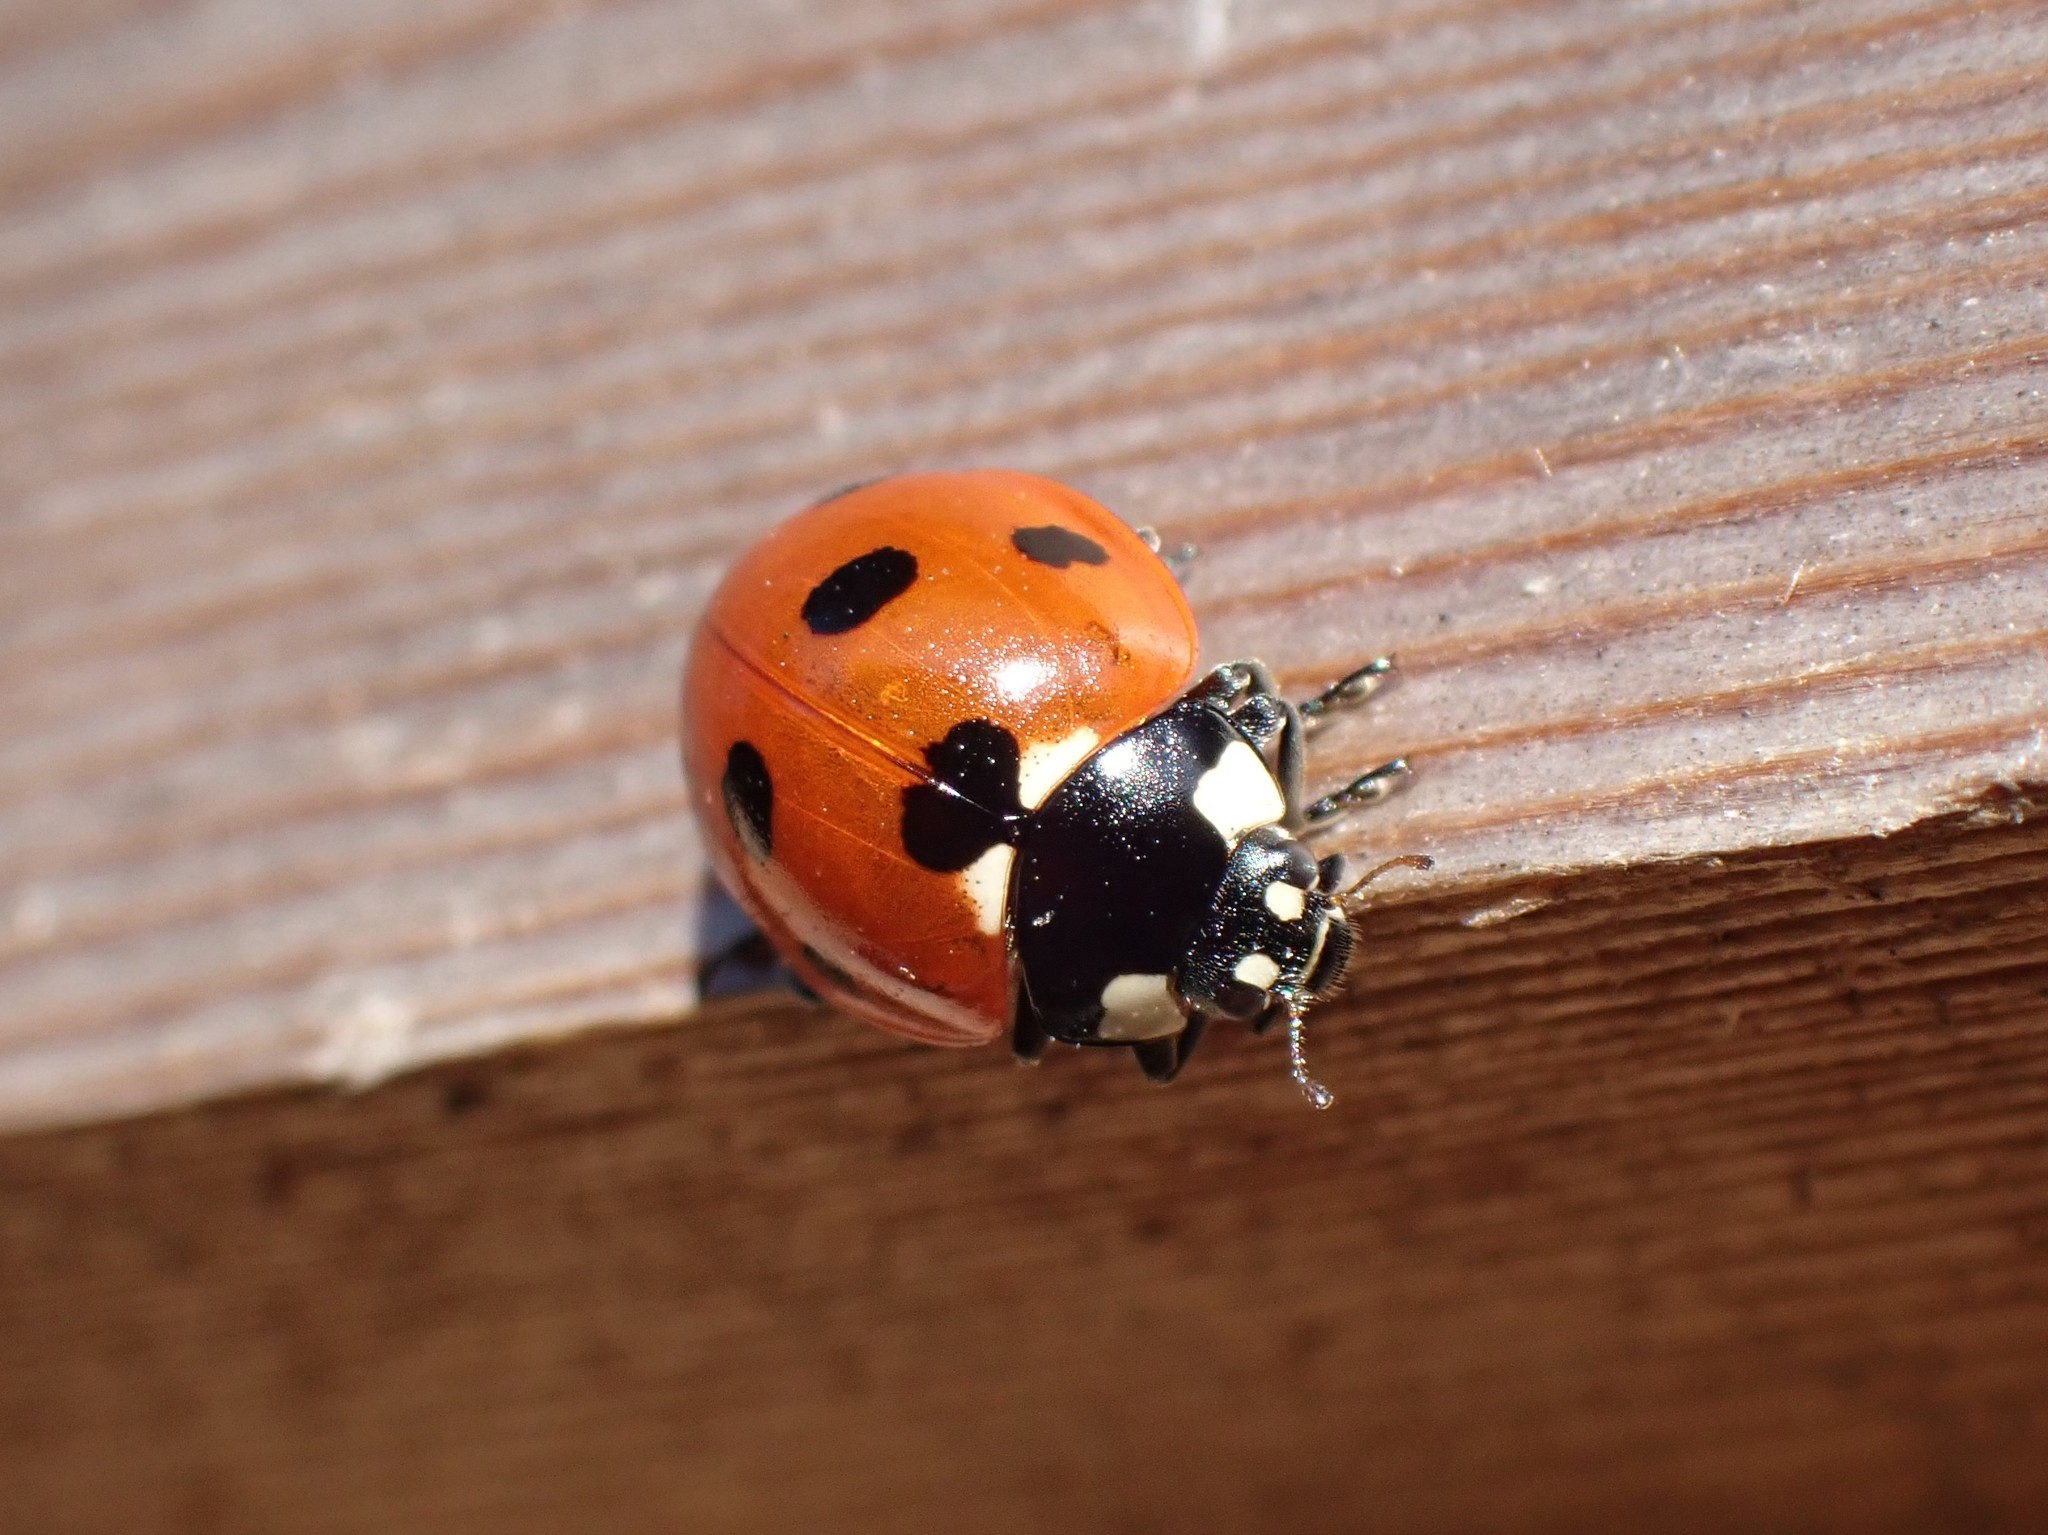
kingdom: Animalia
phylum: Arthropoda
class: Insecta
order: Coleoptera
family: Coccinellidae
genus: Coccinella
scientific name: Coccinella septempunctata
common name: Sevenspotted lady beetle
